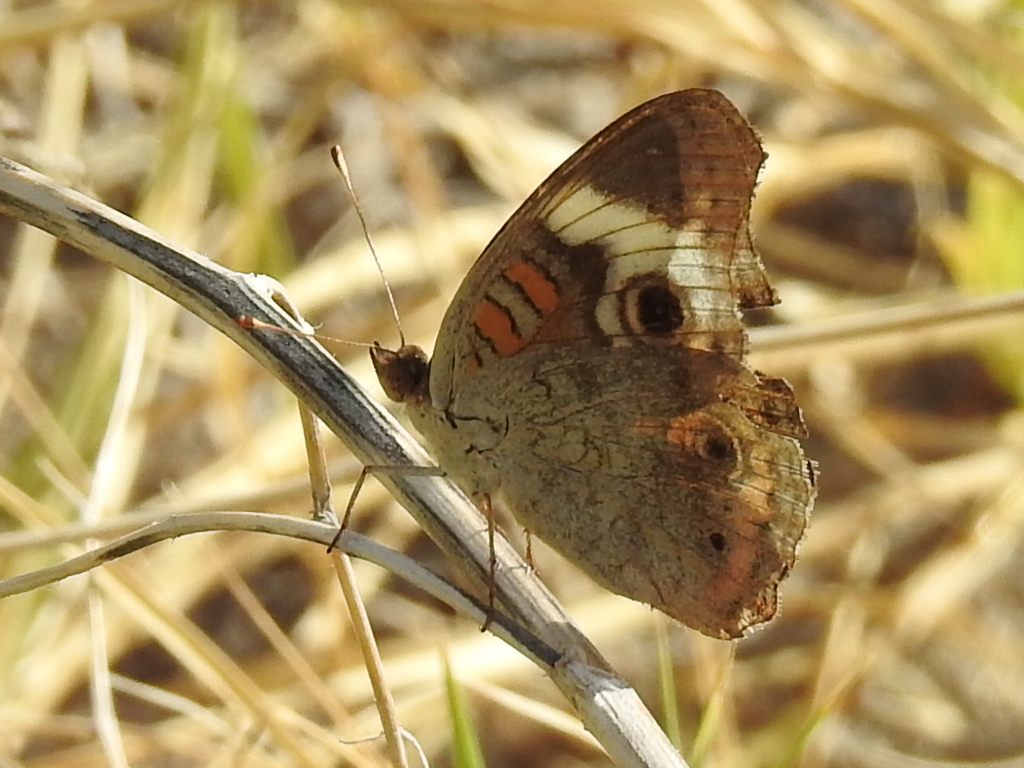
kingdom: Animalia
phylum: Arthropoda
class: Insecta
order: Lepidoptera
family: Nymphalidae
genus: Junonia
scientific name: Junonia coenia
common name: Common buckeye
